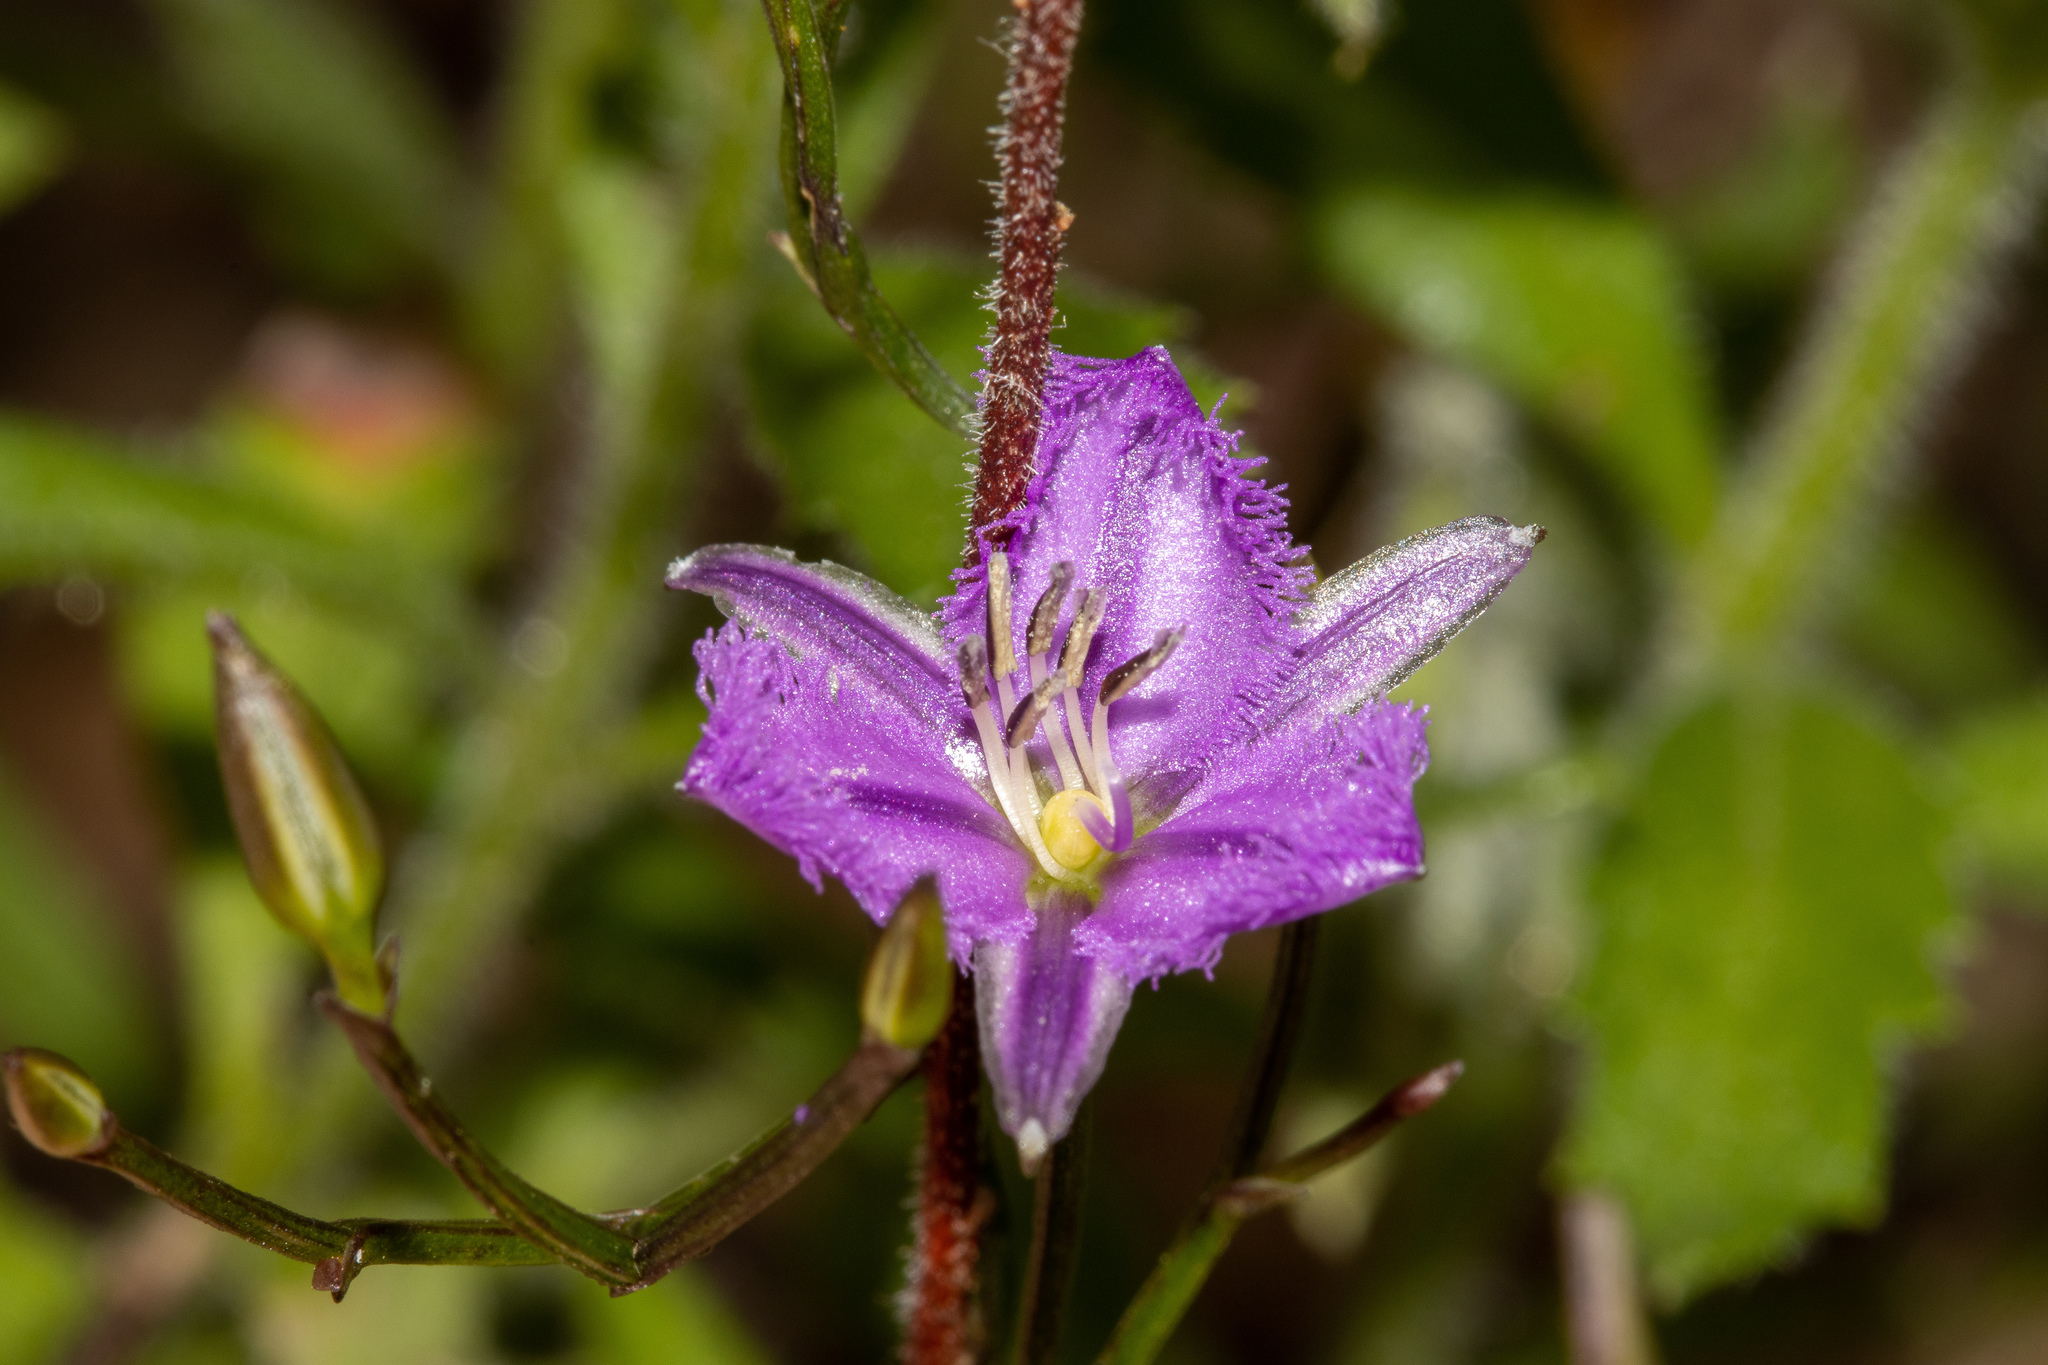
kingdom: Plantae
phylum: Tracheophyta
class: Liliopsida
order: Asparagales
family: Asparagaceae
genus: Thysanotus
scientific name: Thysanotus patersonii
